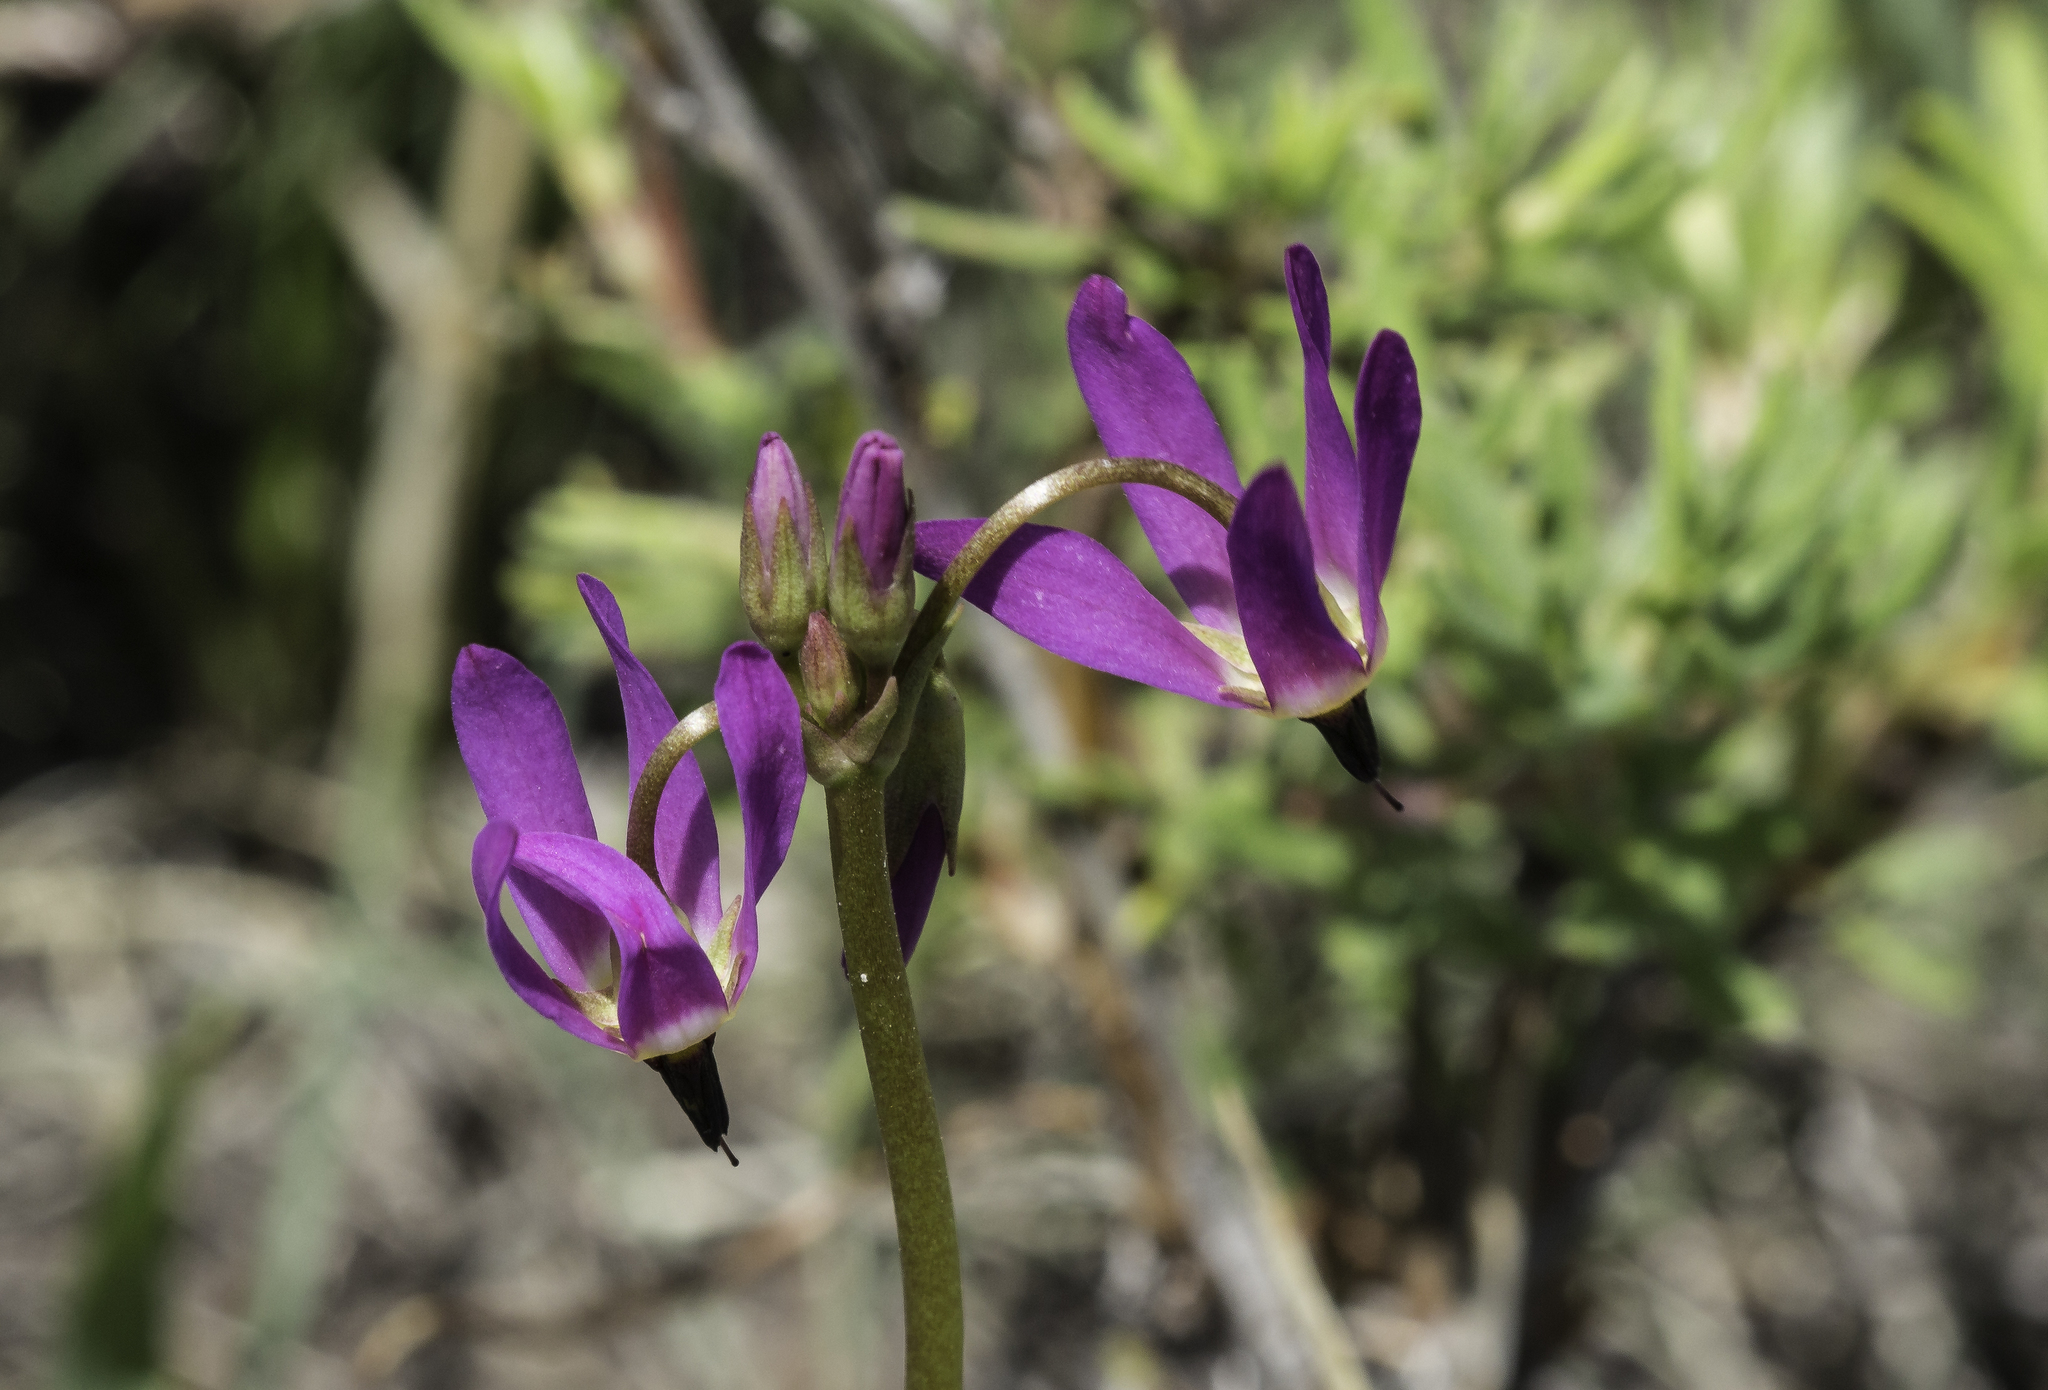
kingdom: Plantae
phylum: Tracheophyta
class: Magnoliopsida
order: Ericales
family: Primulaceae
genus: Dodecatheon
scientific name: Dodecatheon pulchellum
